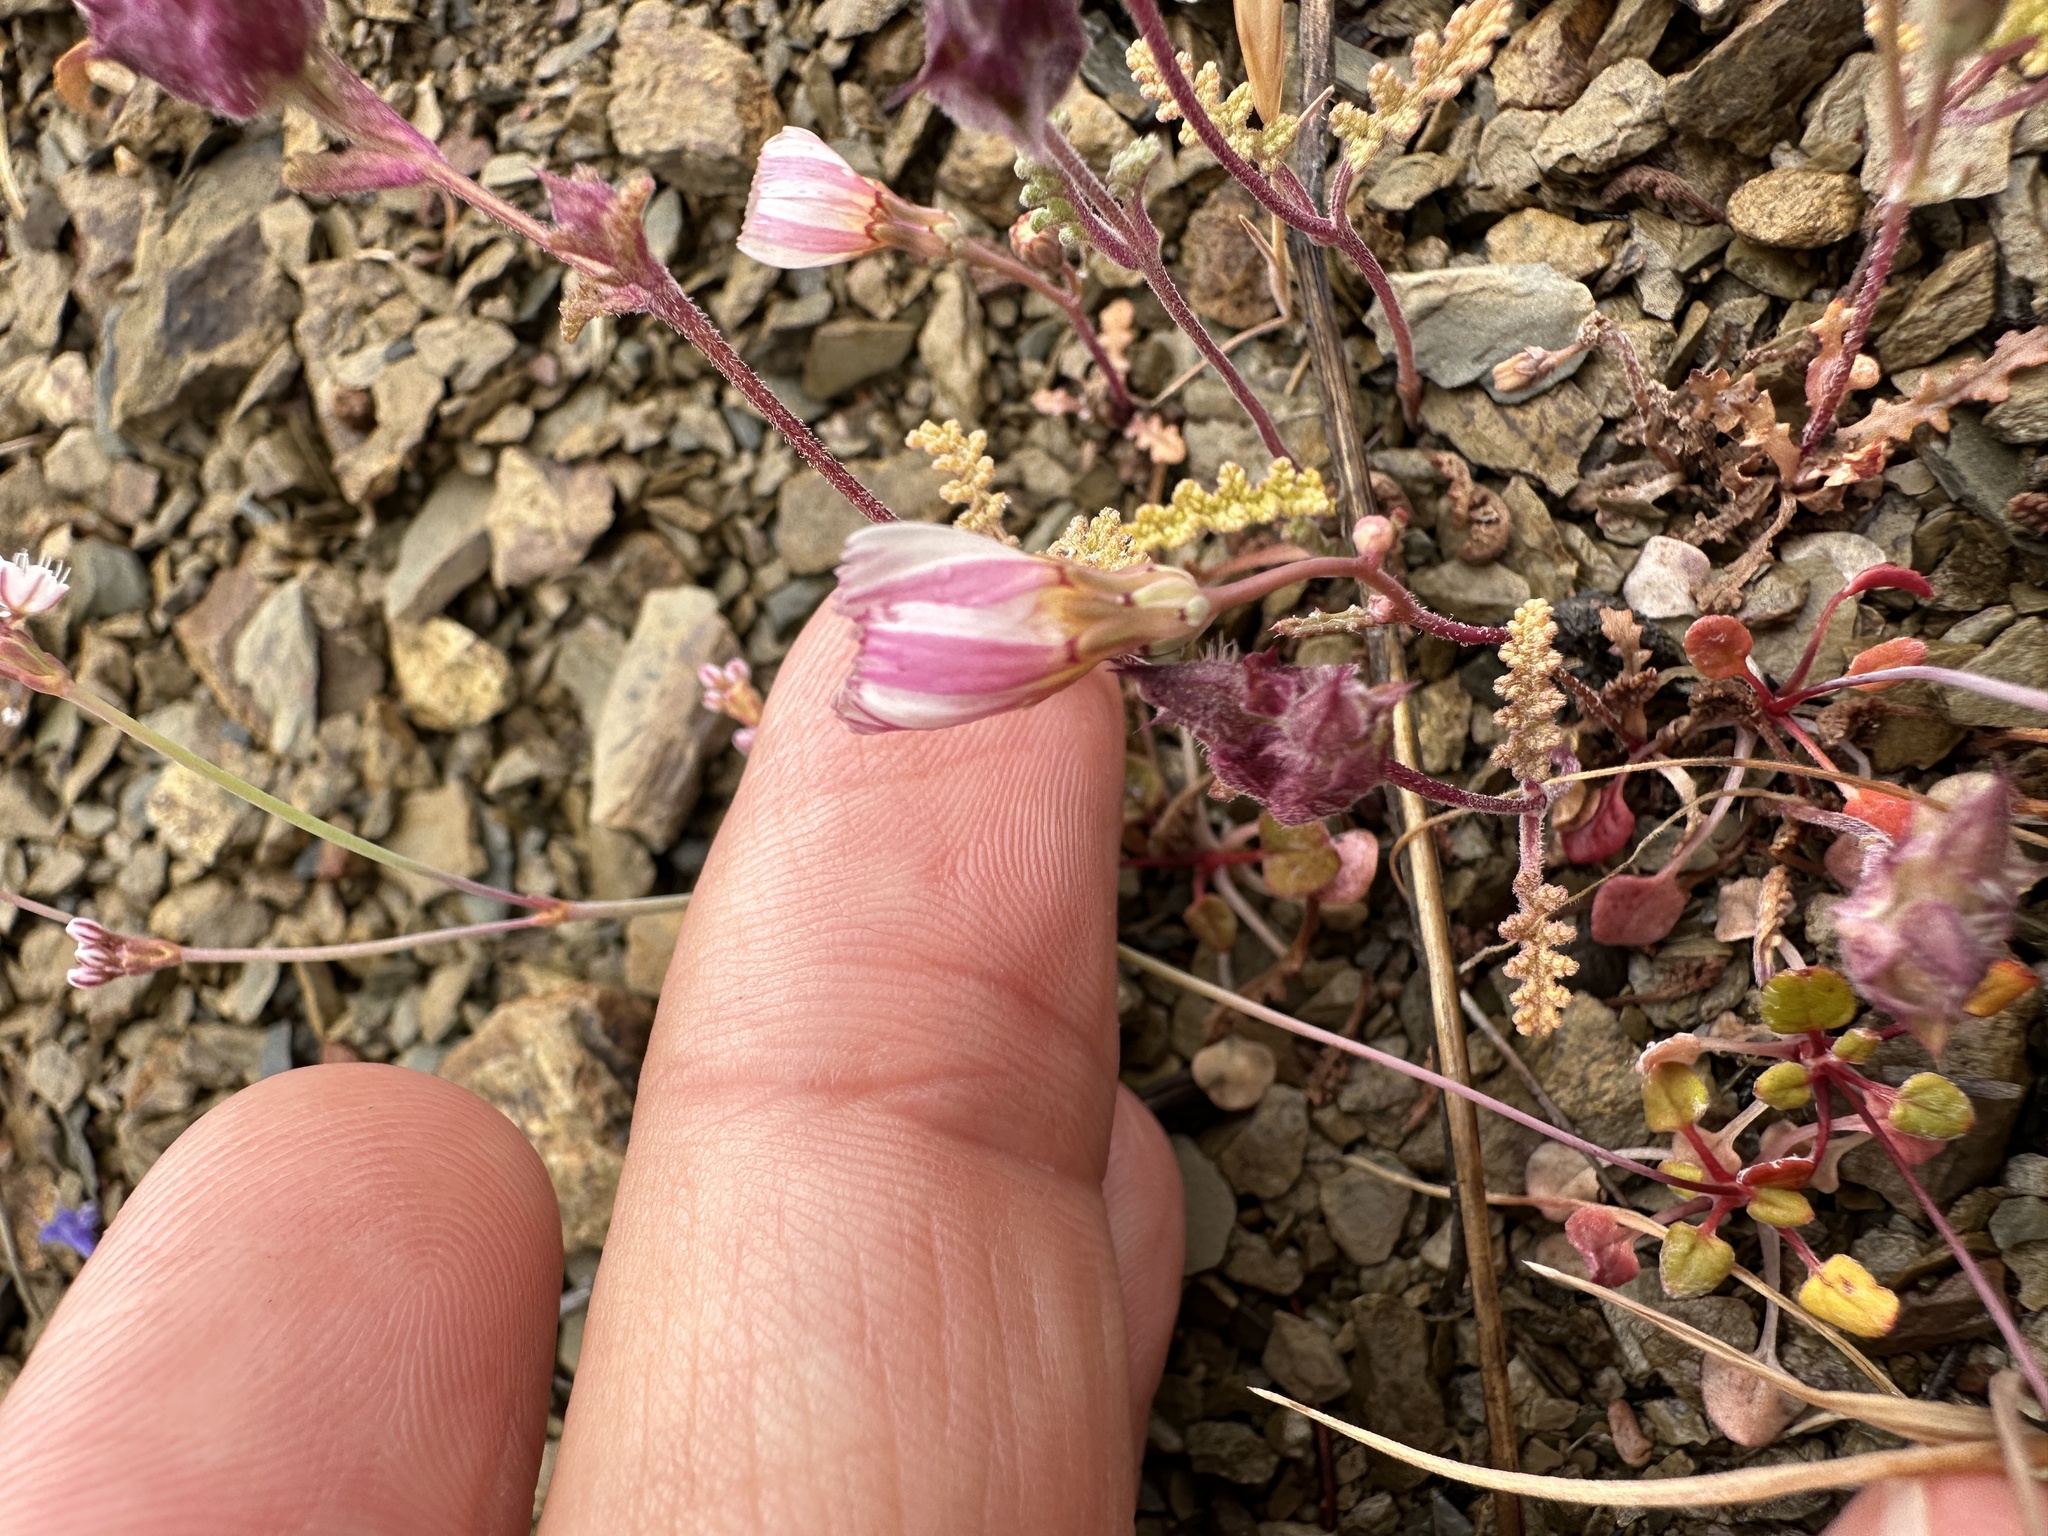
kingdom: Plantae
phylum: Tracheophyta
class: Magnoliopsida
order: Asterales
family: Asteraceae
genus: Malacothrix
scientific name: Malacothrix floccifera
